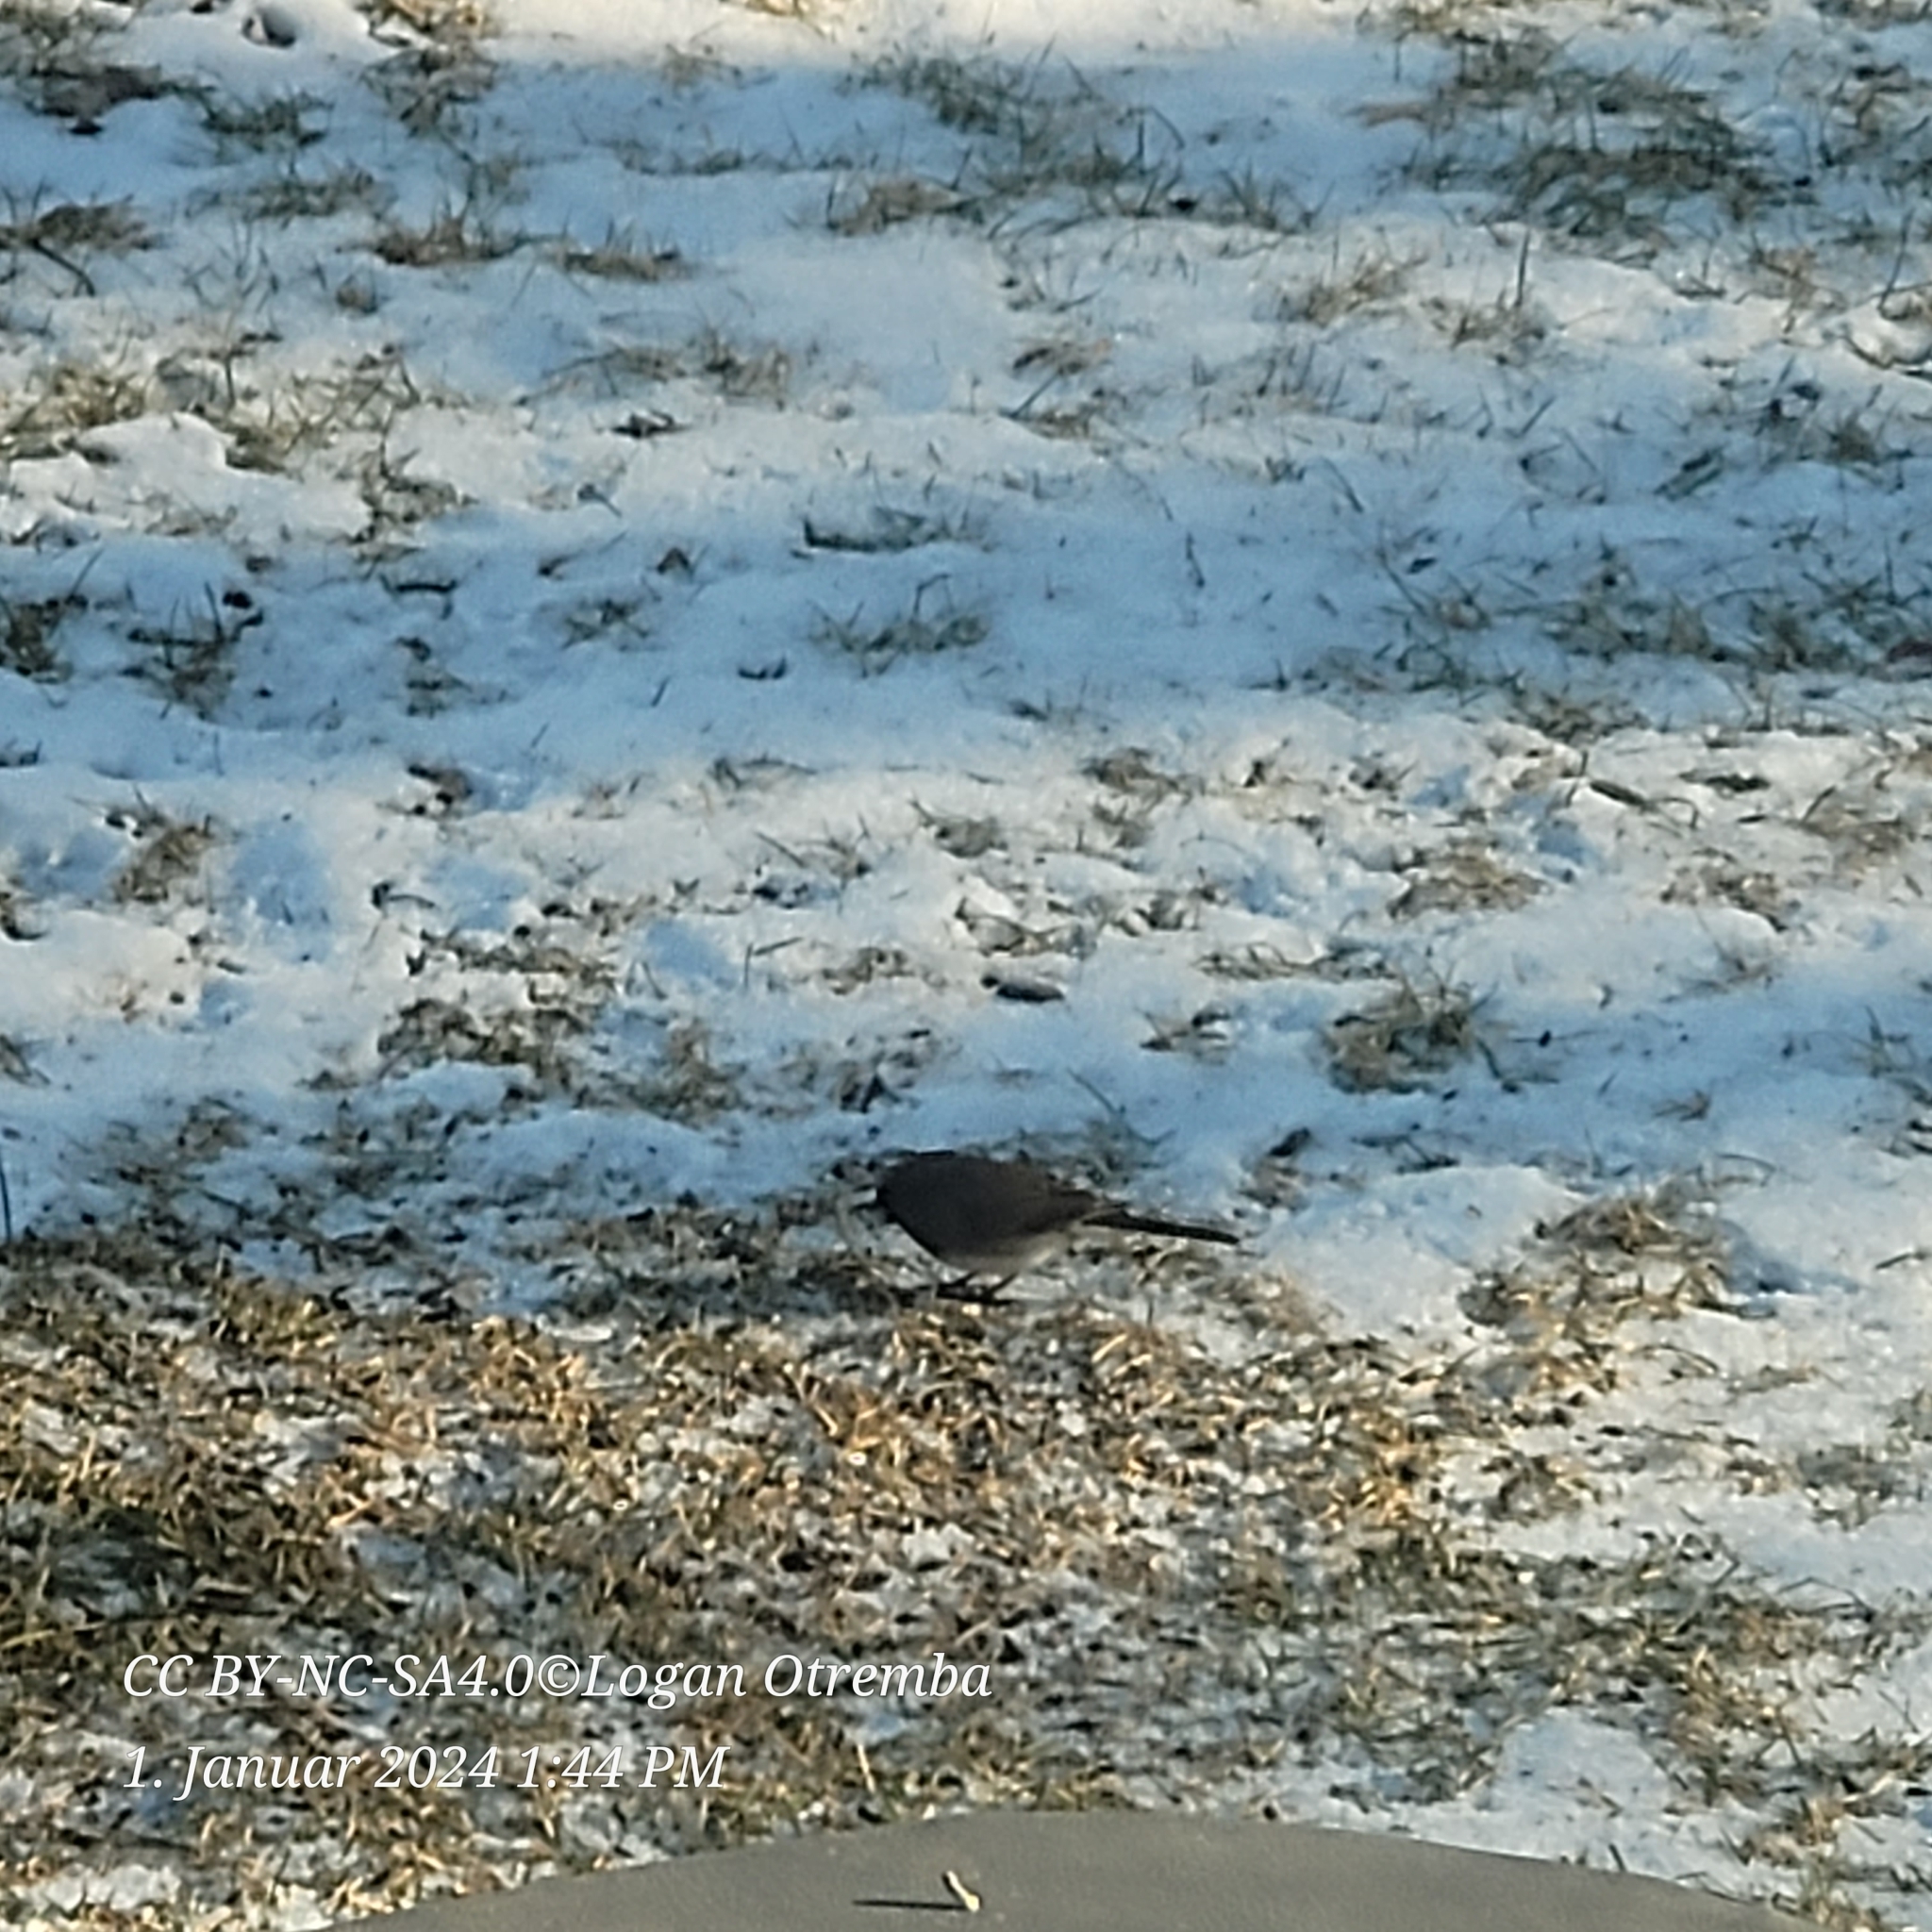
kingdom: Animalia
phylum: Chordata
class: Aves
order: Passeriformes
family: Passerellidae
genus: Junco
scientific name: Junco hyemalis
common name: Dark-eyed junco
